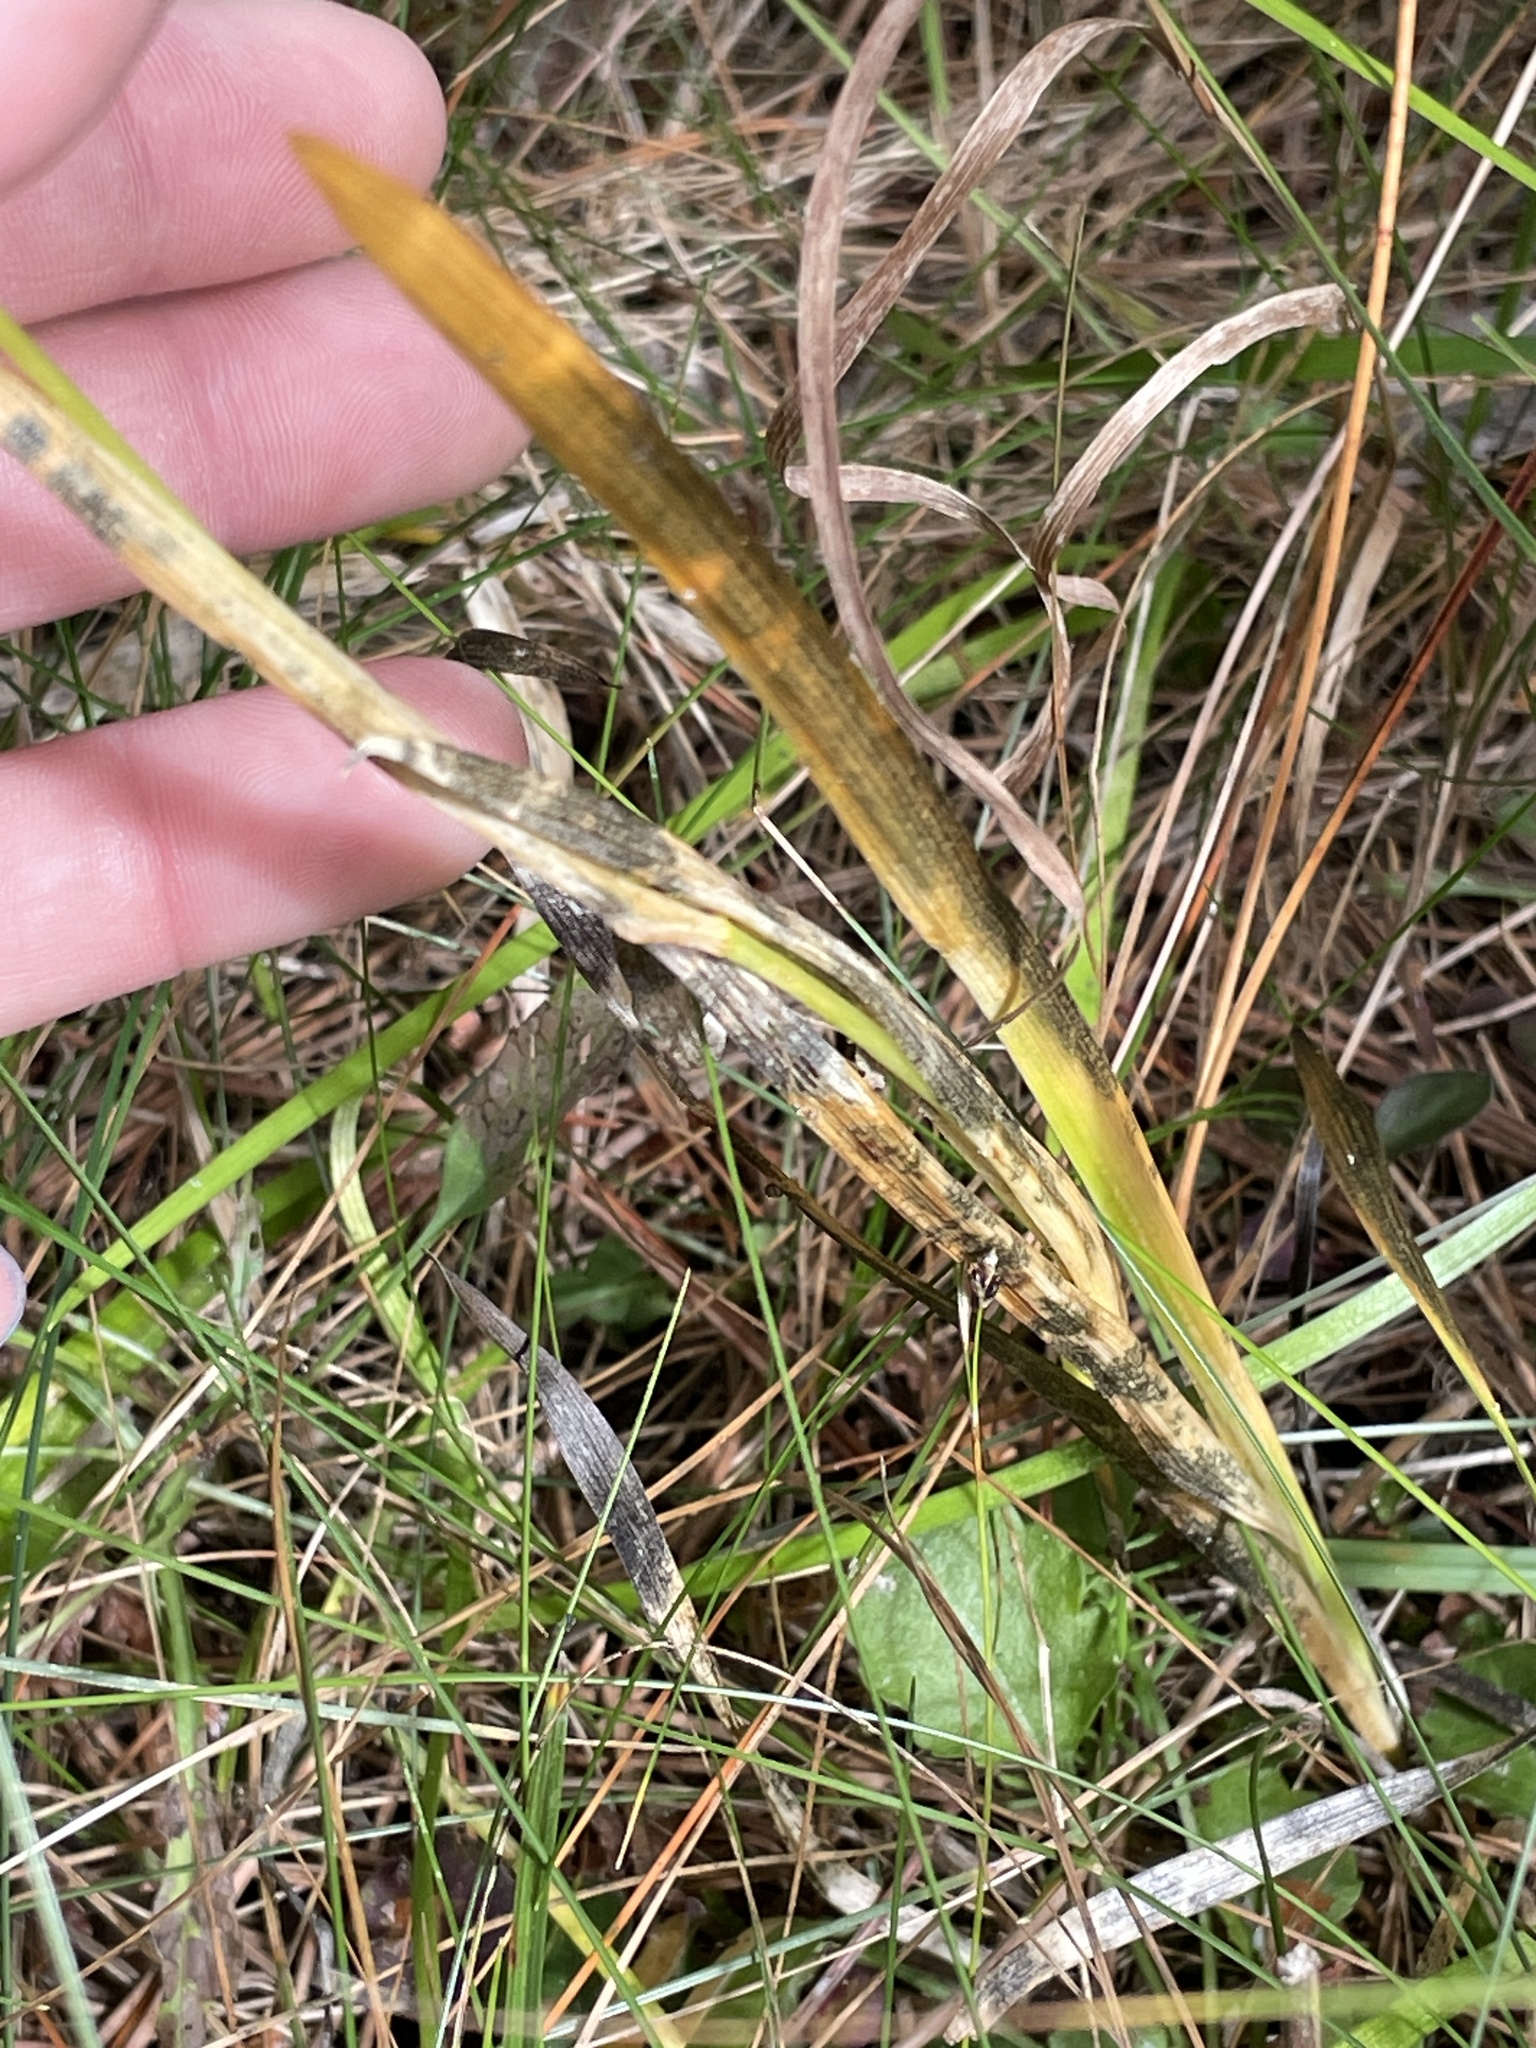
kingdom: Plantae
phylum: Tracheophyta
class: Liliopsida
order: Alismatales
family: Tofieldiaceae
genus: Triantha
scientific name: Triantha glutinosa
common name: Glutinous tofieldia
